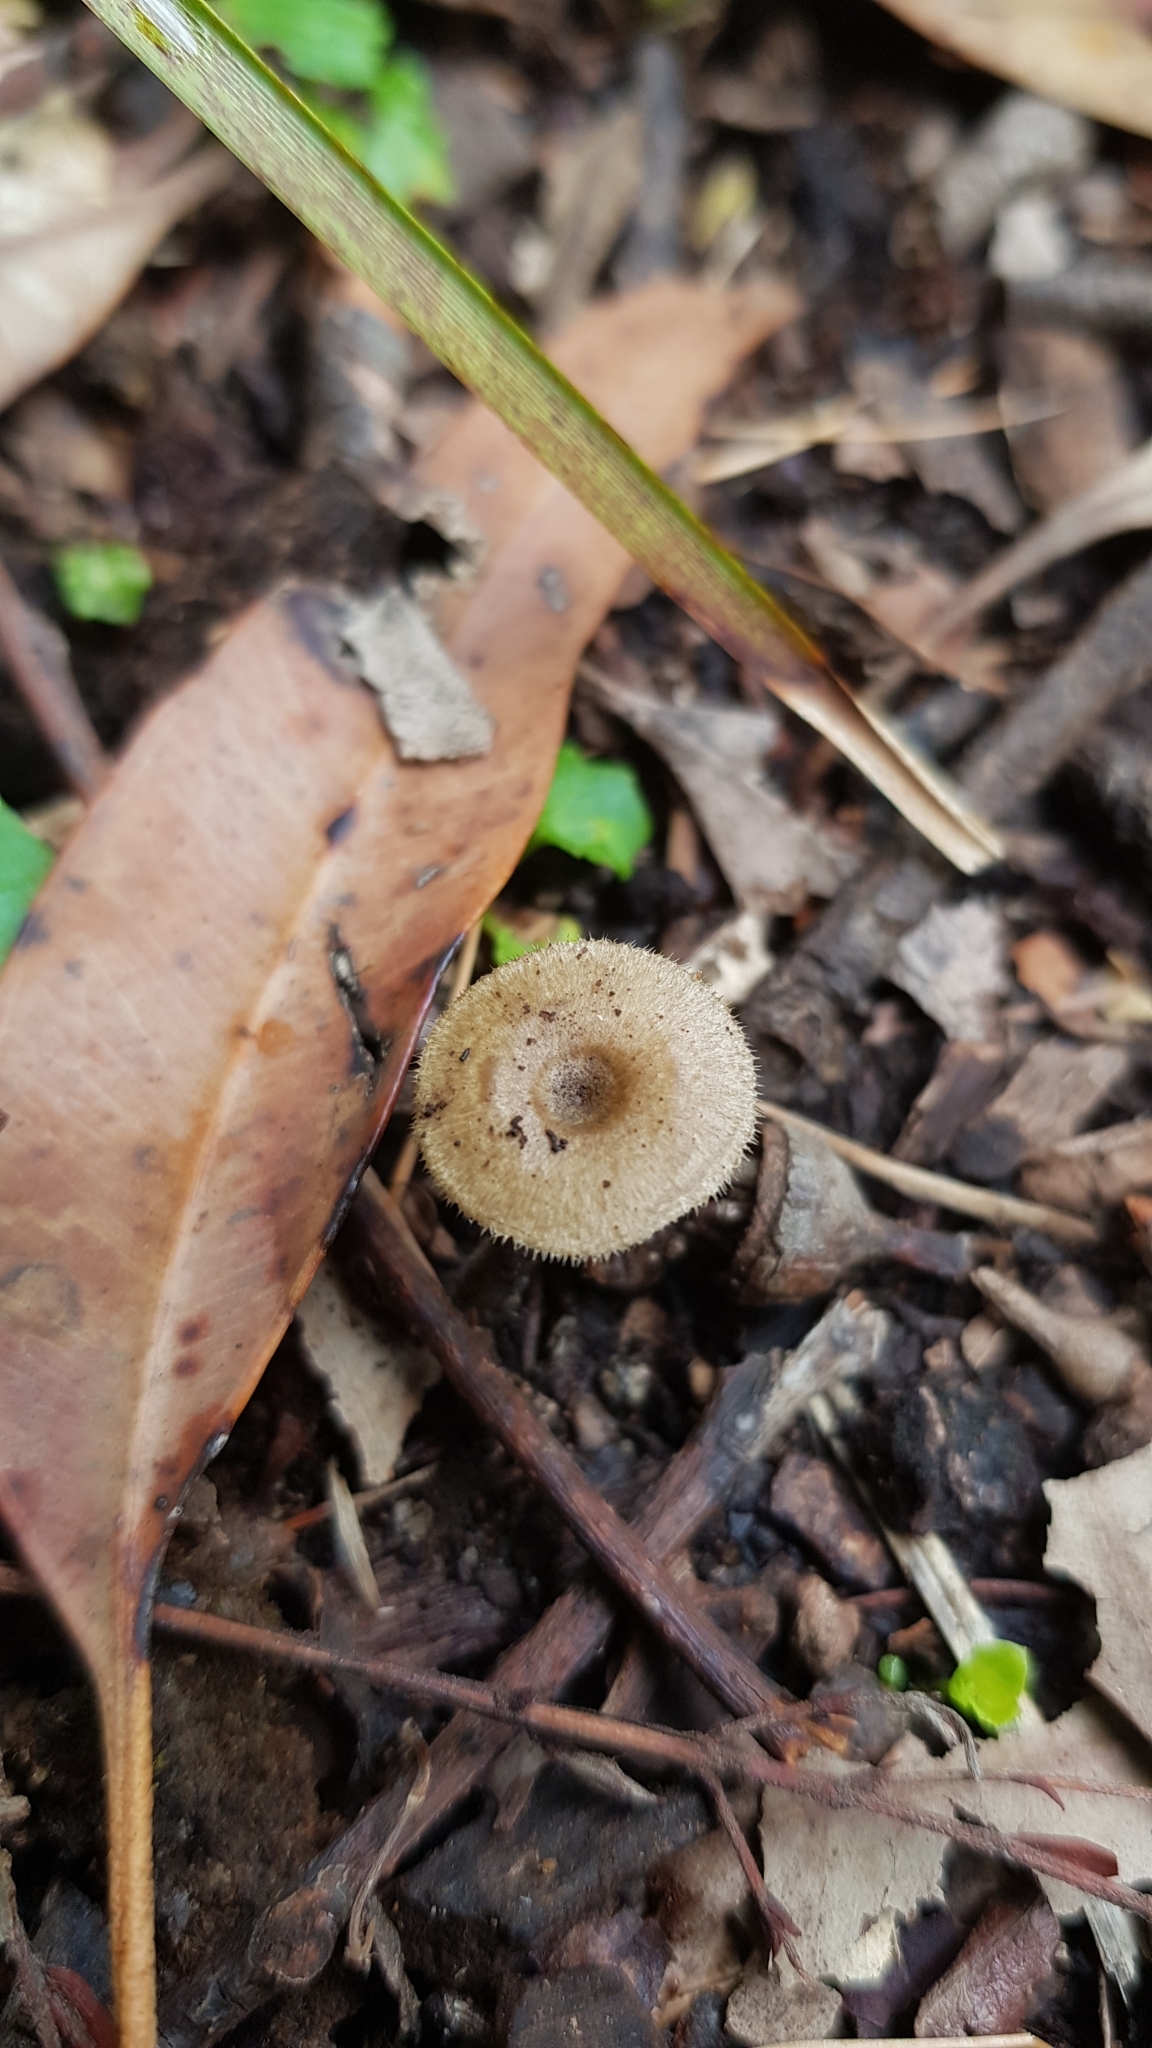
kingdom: Fungi
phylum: Basidiomycota
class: Agaricomycetes
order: Polyporales
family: Polyporaceae
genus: Lentinus
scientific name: Lentinus arcularius
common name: Spring polypore
